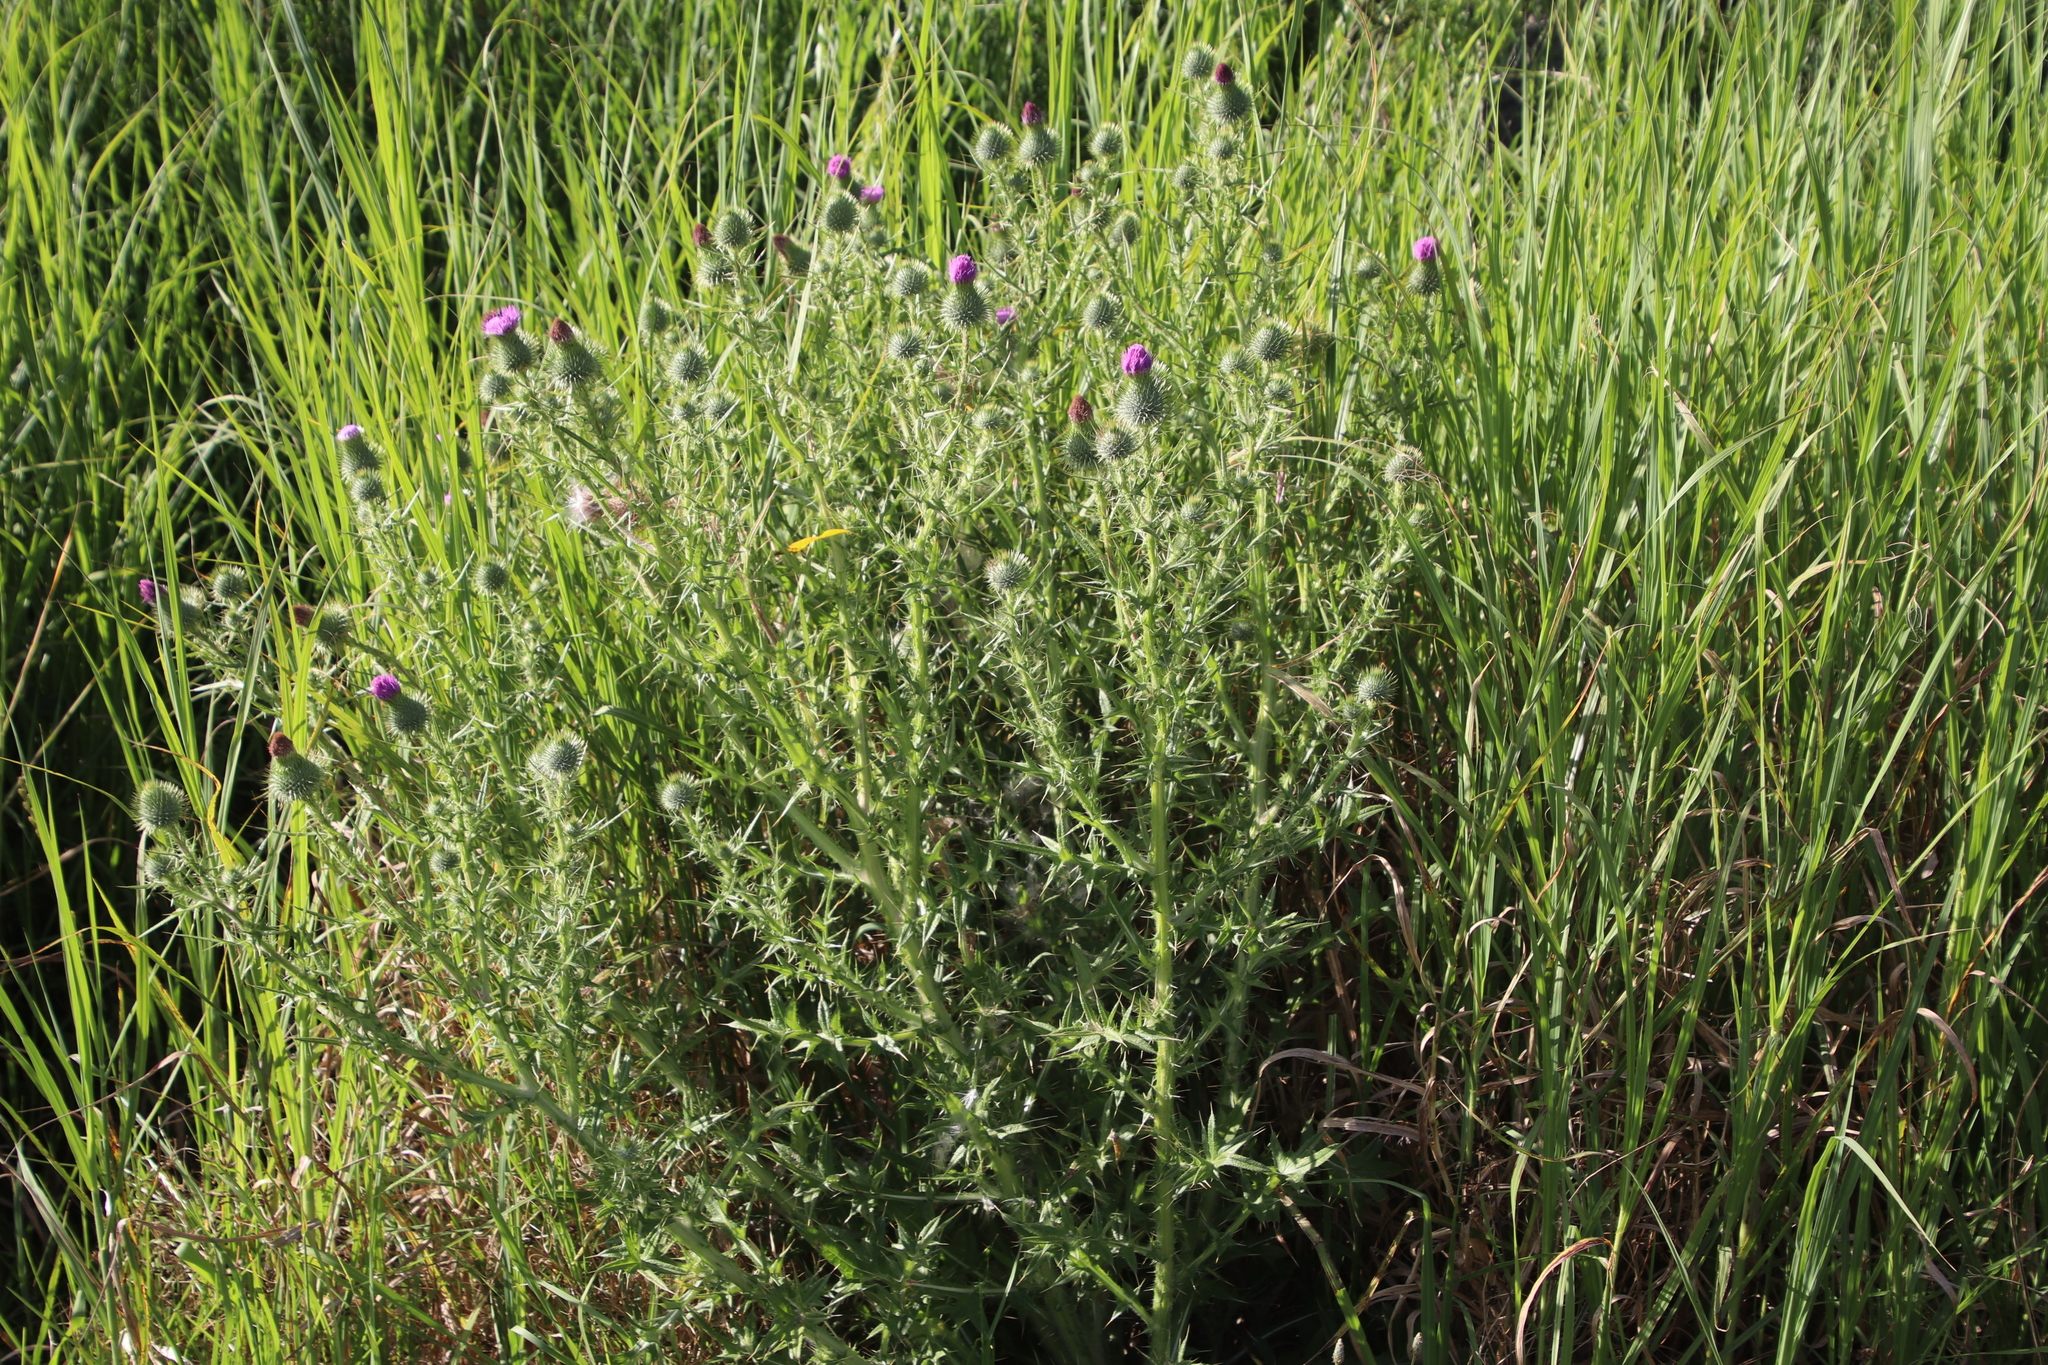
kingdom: Plantae
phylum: Tracheophyta
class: Magnoliopsida
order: Asterales
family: Asteraceae
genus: Cirsium
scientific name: Cirsium vulgare
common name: Bull thistle
